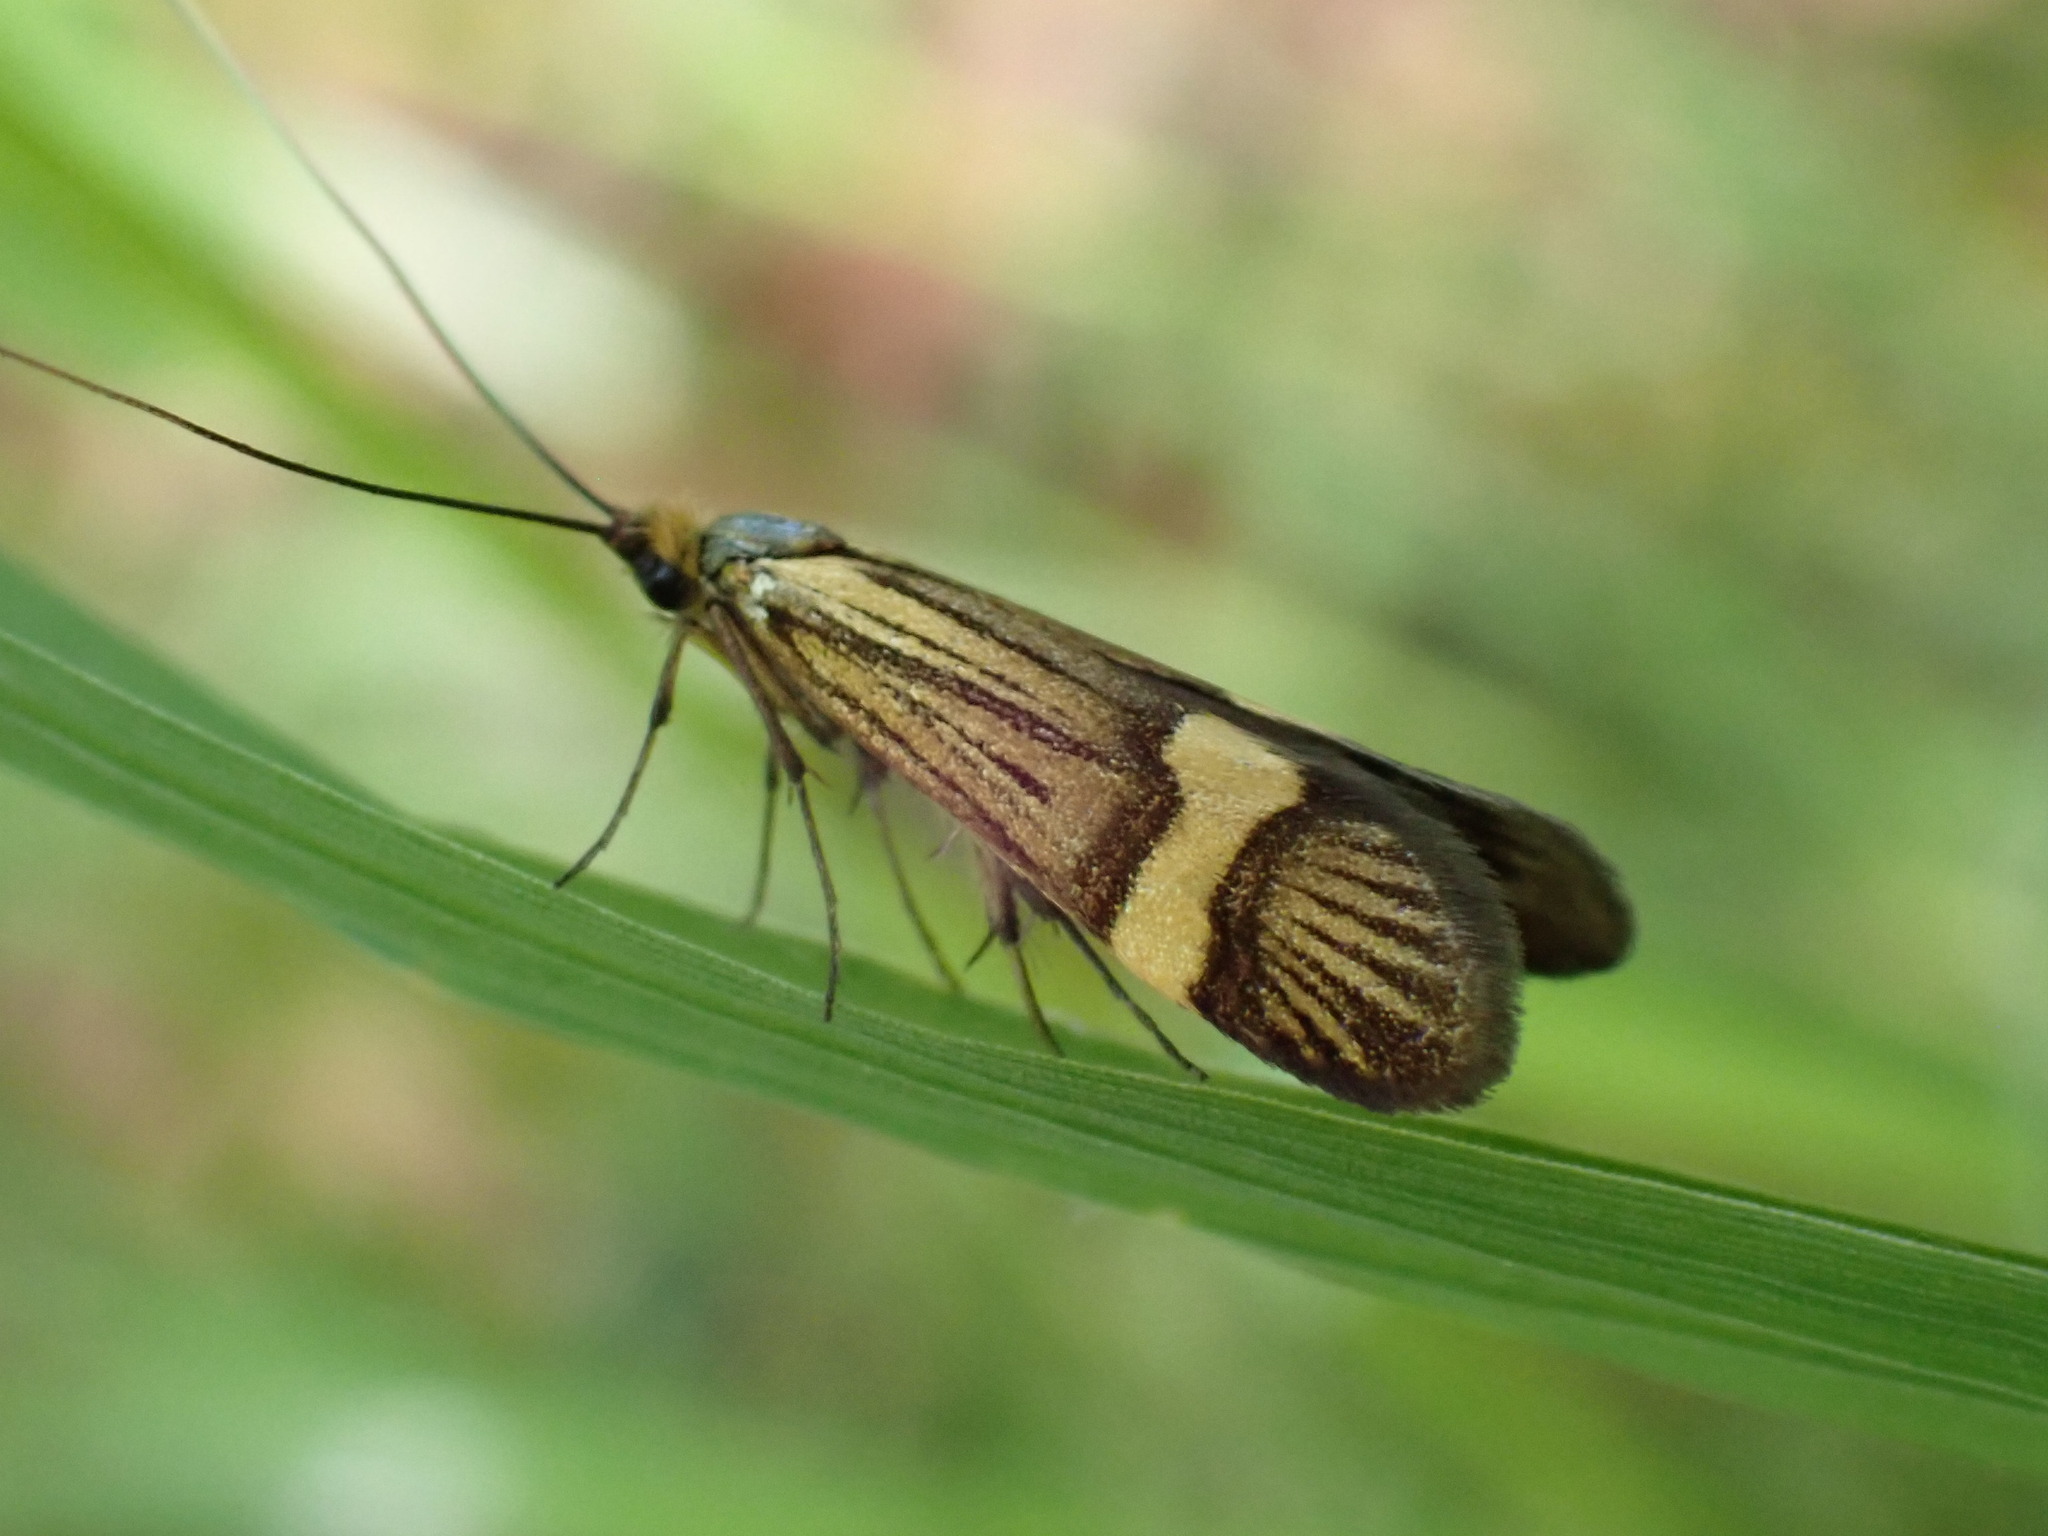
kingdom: Animalia
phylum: Arthropoda
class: Insecta
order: Lepidoptera
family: Adelidae
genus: Nemophora
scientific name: Nemophora degeerella
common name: Yellow-barred long-horn
